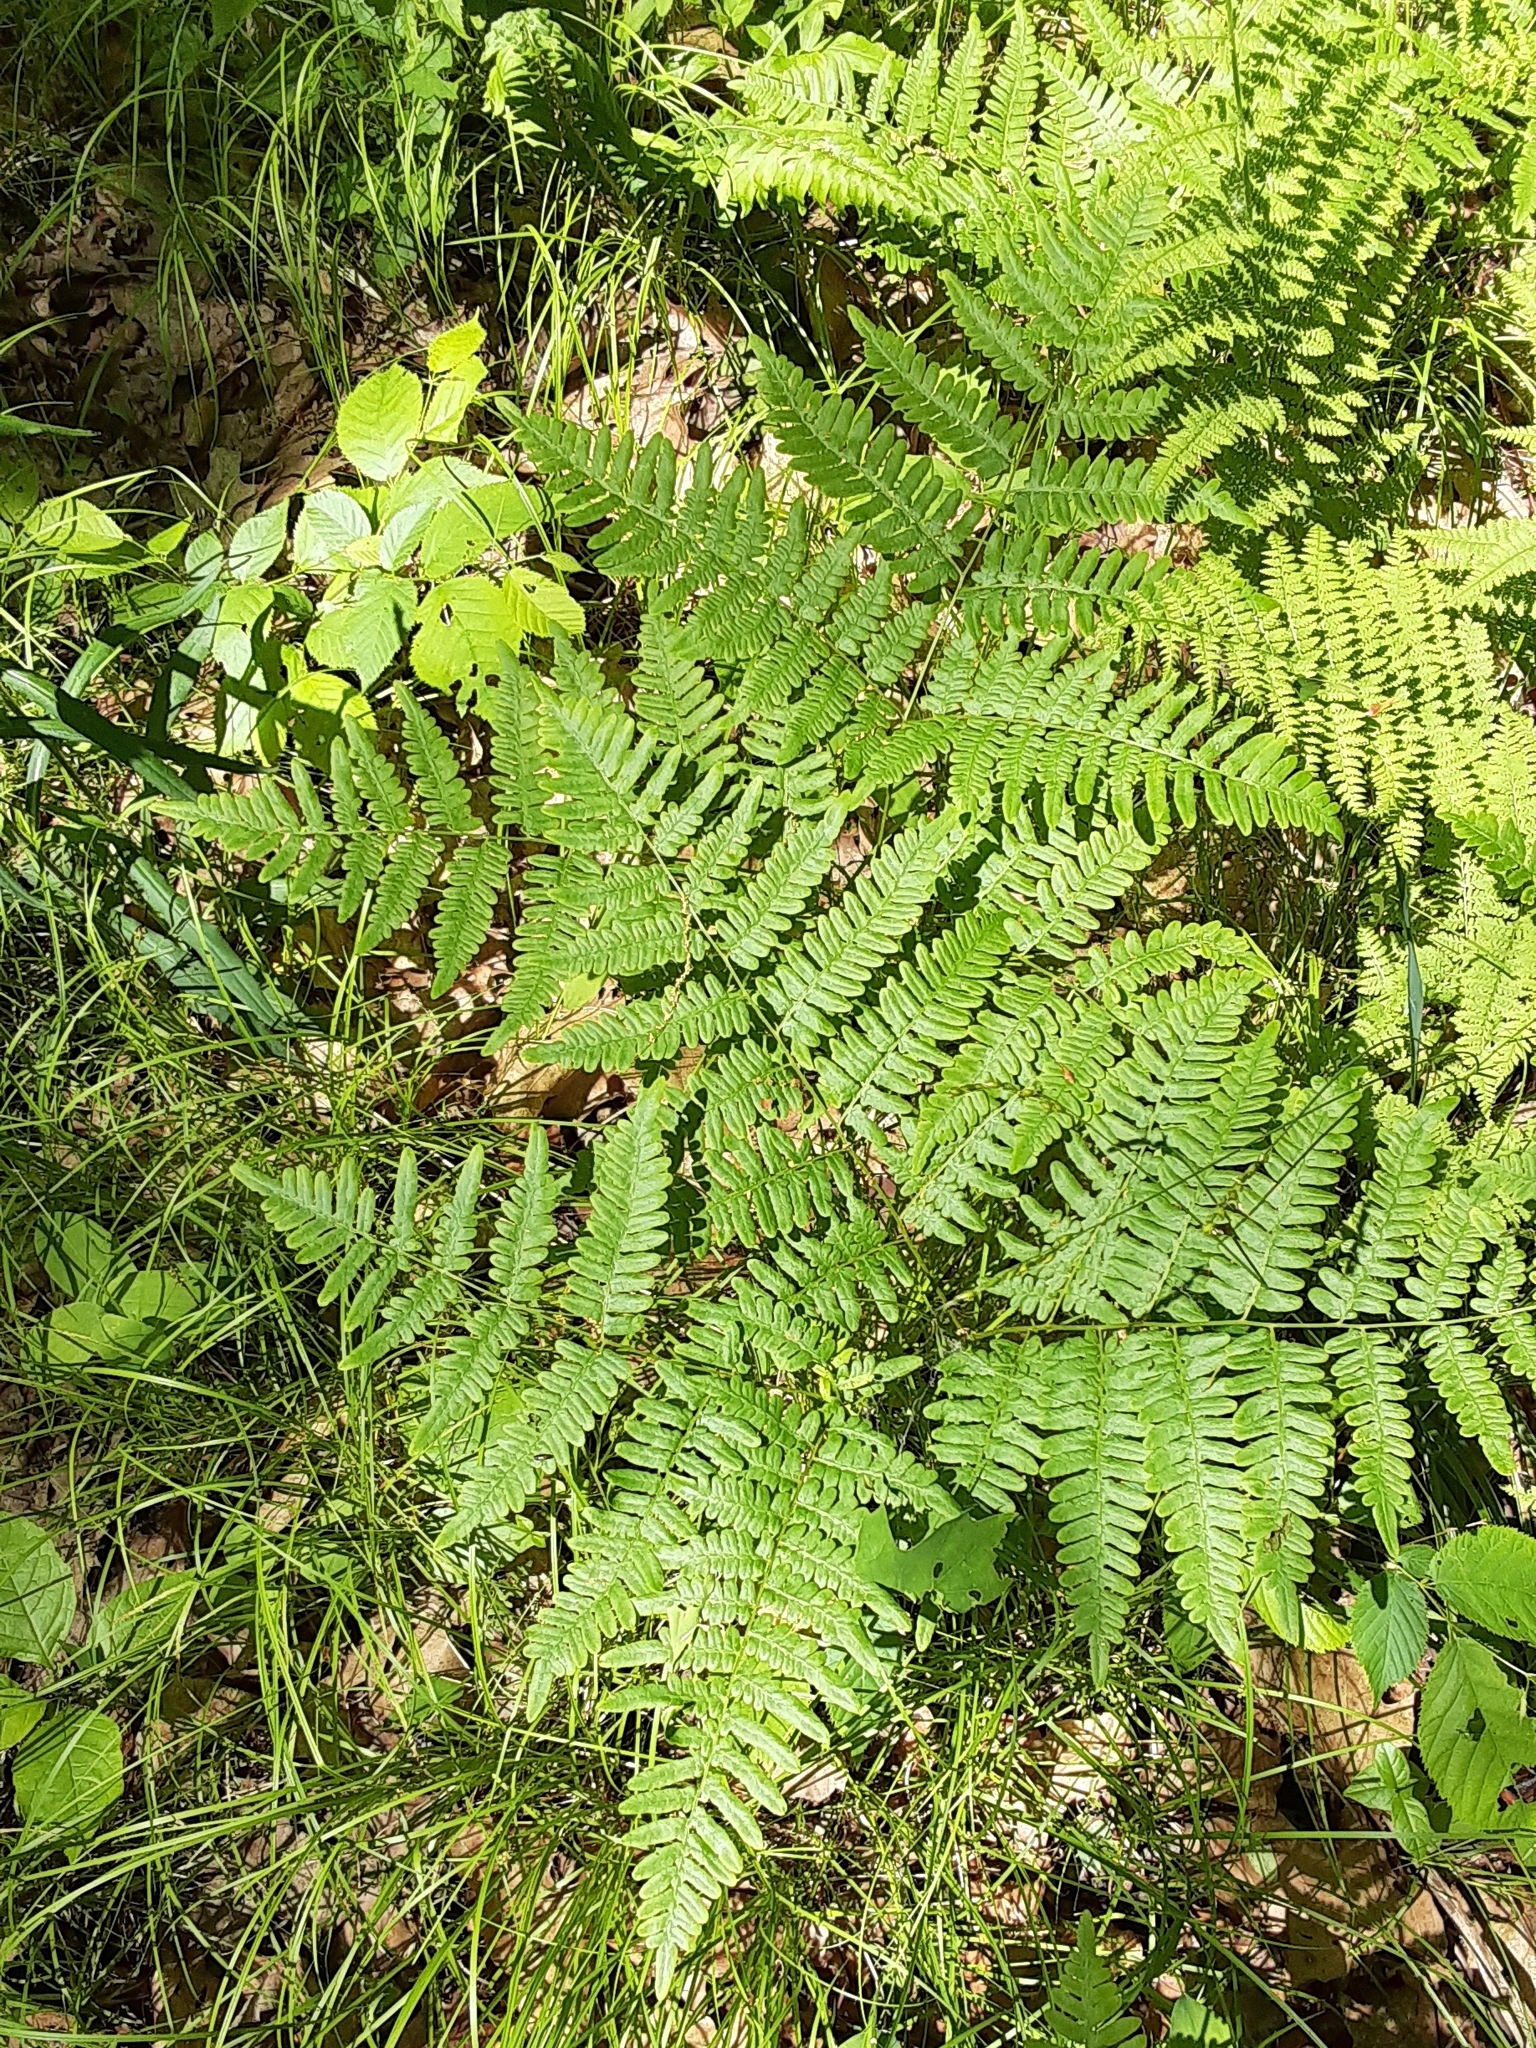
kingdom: Plantae
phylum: Tracheophyta
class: Polypodiopsida
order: Polypodiales
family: Dennstaedtiaceae
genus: Pteridium
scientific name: Pteridium aquilinum
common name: Bracken
